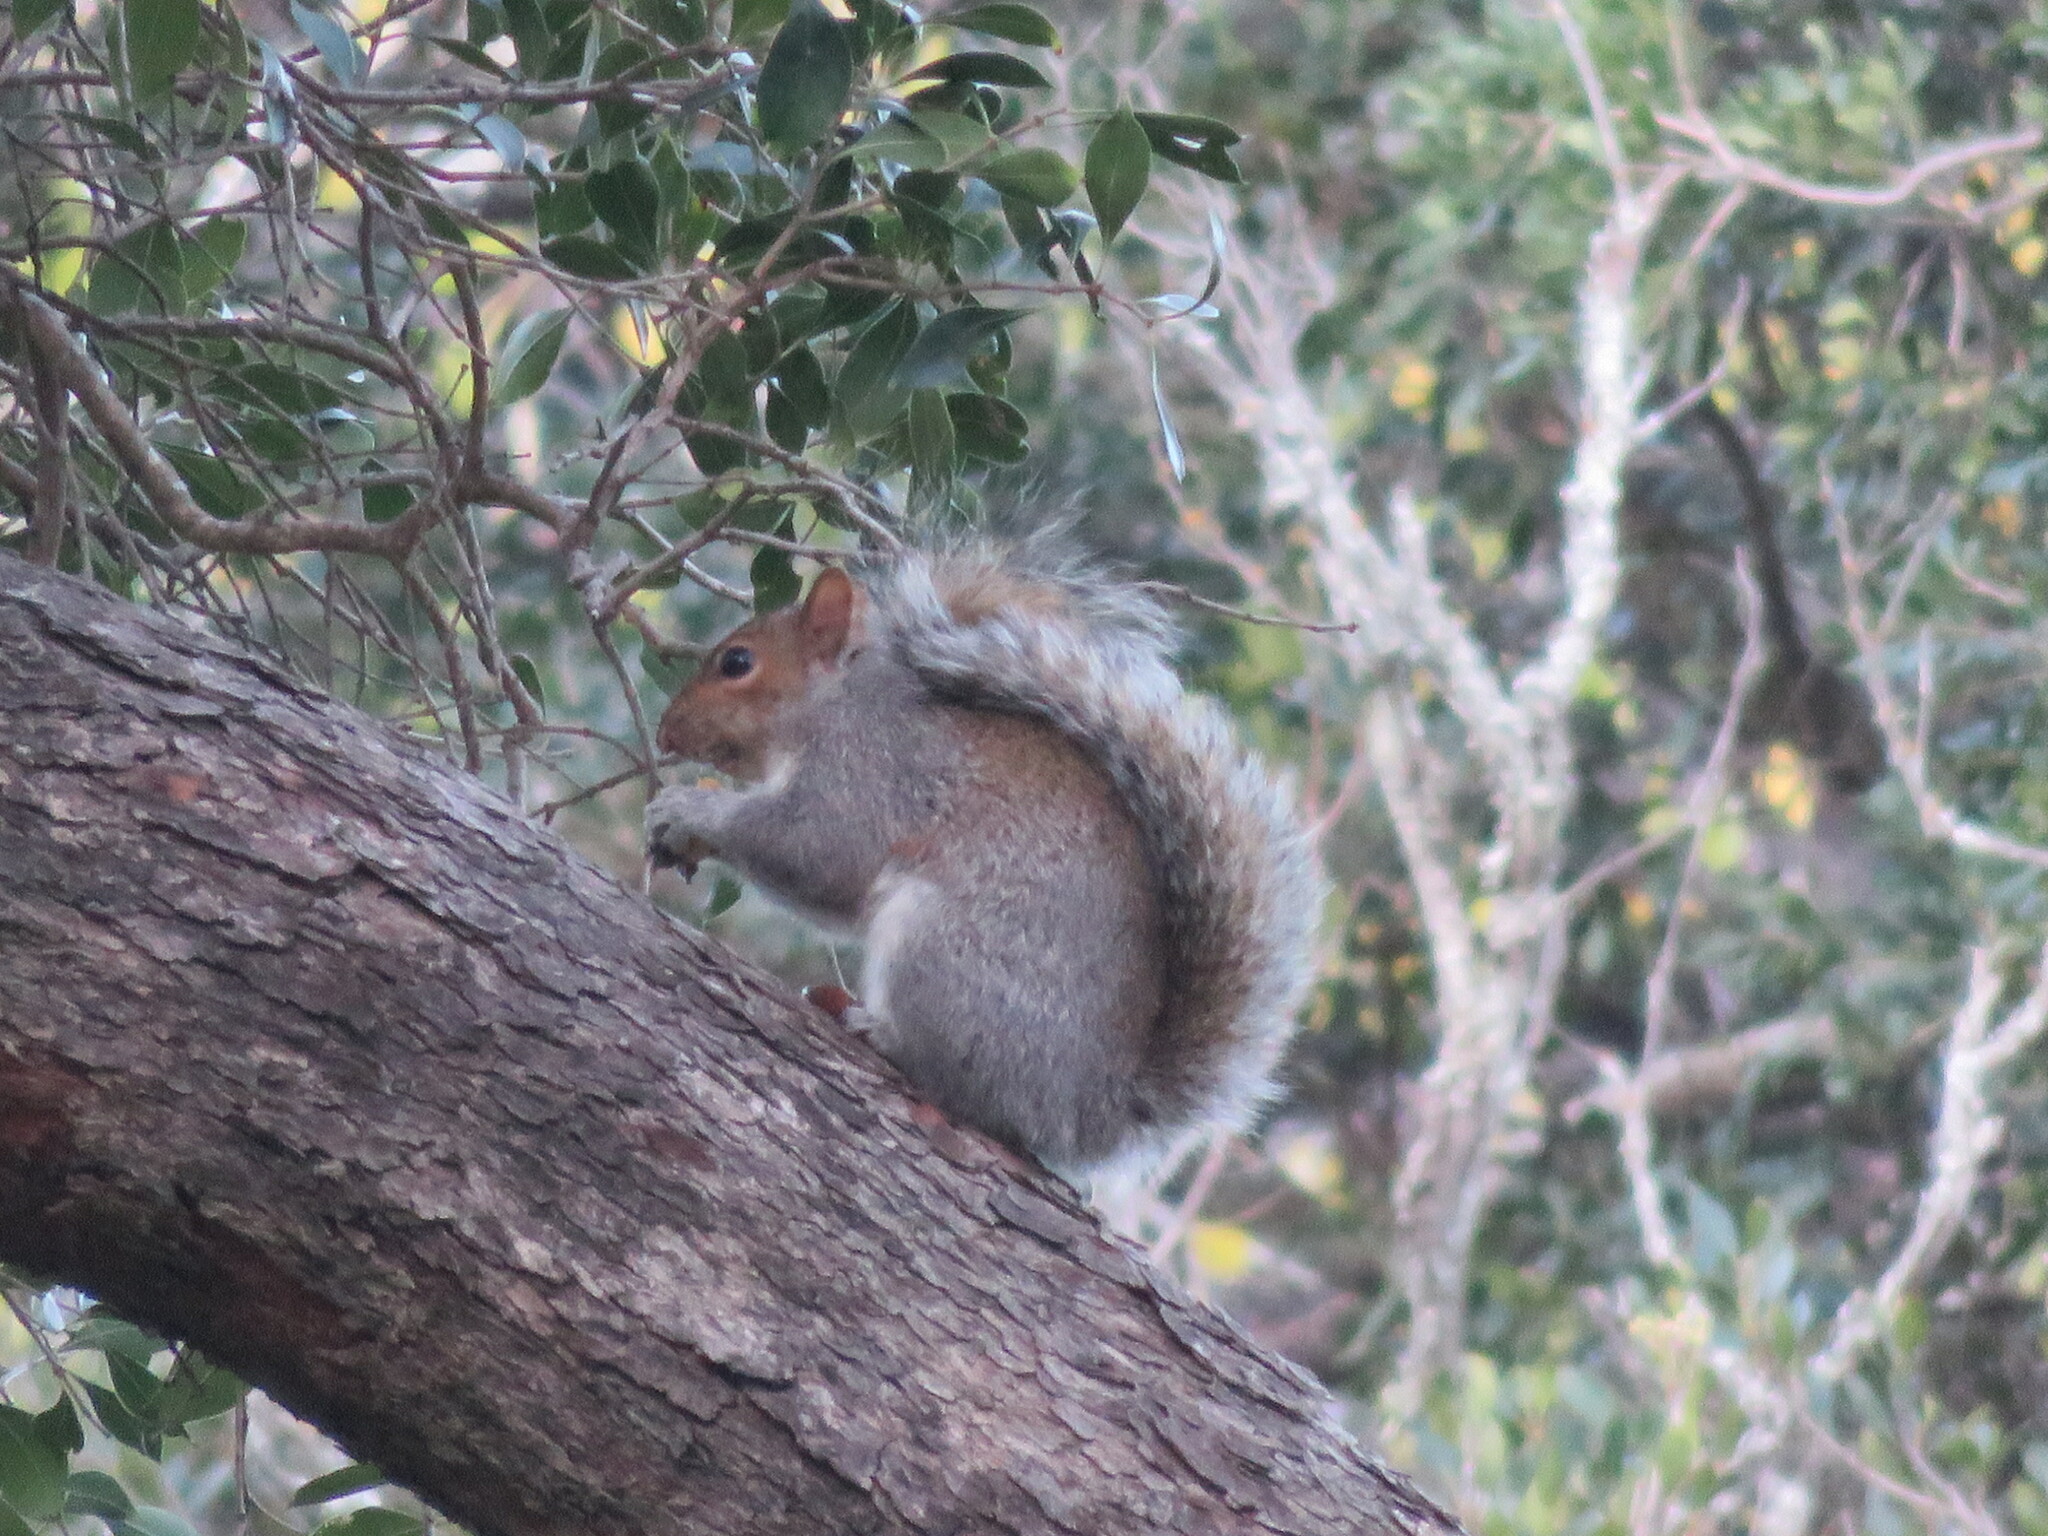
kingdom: Animalia
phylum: Chordata
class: Mammalia
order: Rodentia
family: Sciuridae
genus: Sciurus
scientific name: Sciurus carolinensis
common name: Eastern gray squirrel
